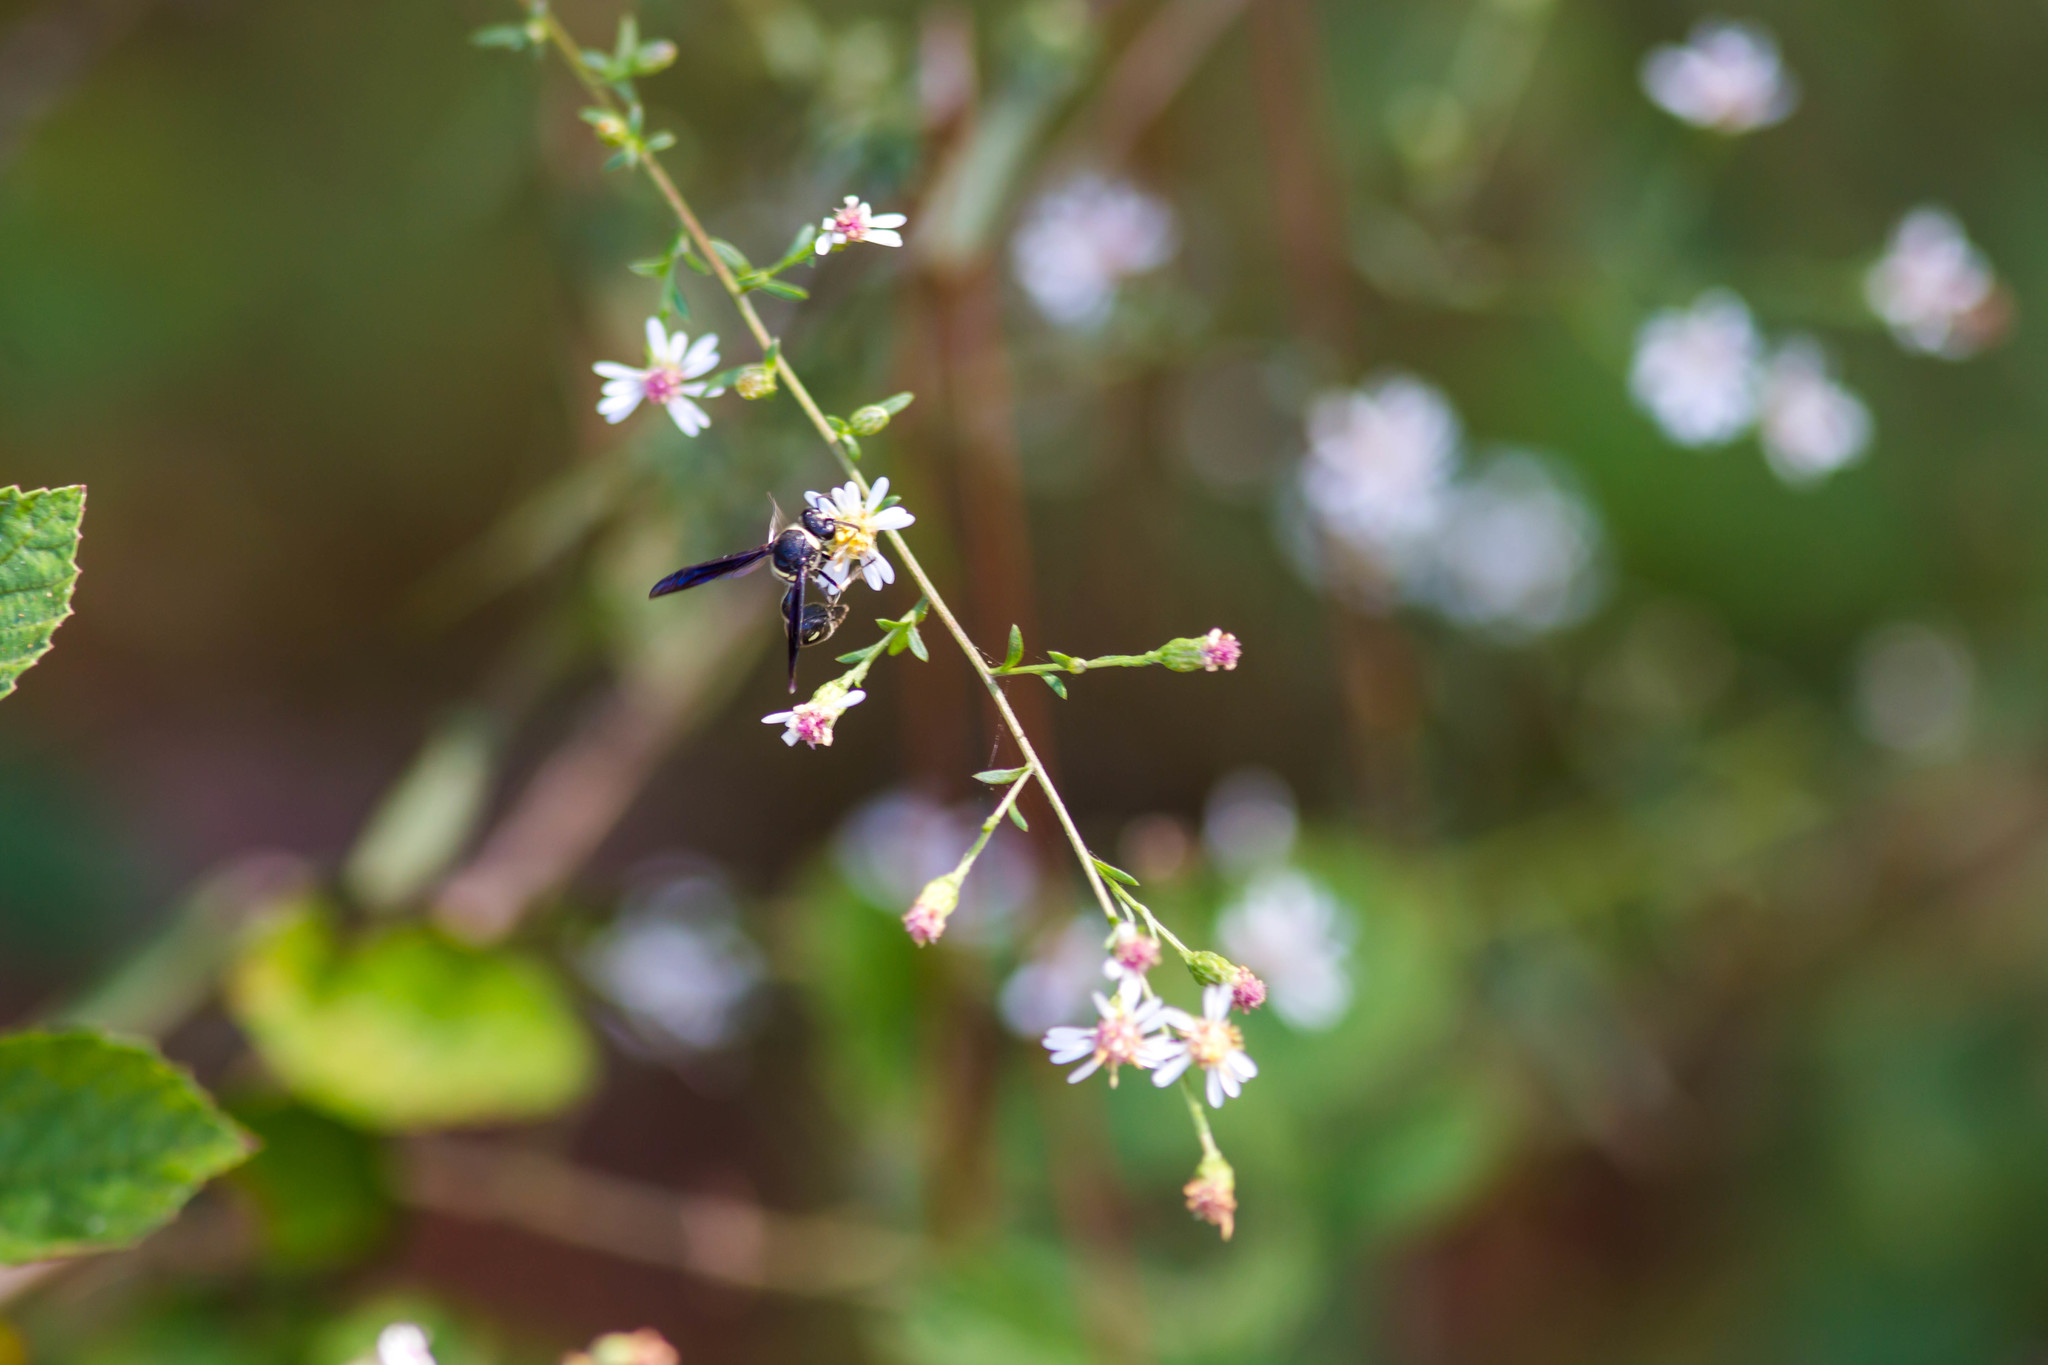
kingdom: Animalia
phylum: Arthropoda
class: Insecta
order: Hymenoptera
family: Vespidae
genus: Eumenes
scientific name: Eumenes fraternus
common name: Fraternal potter wasp
